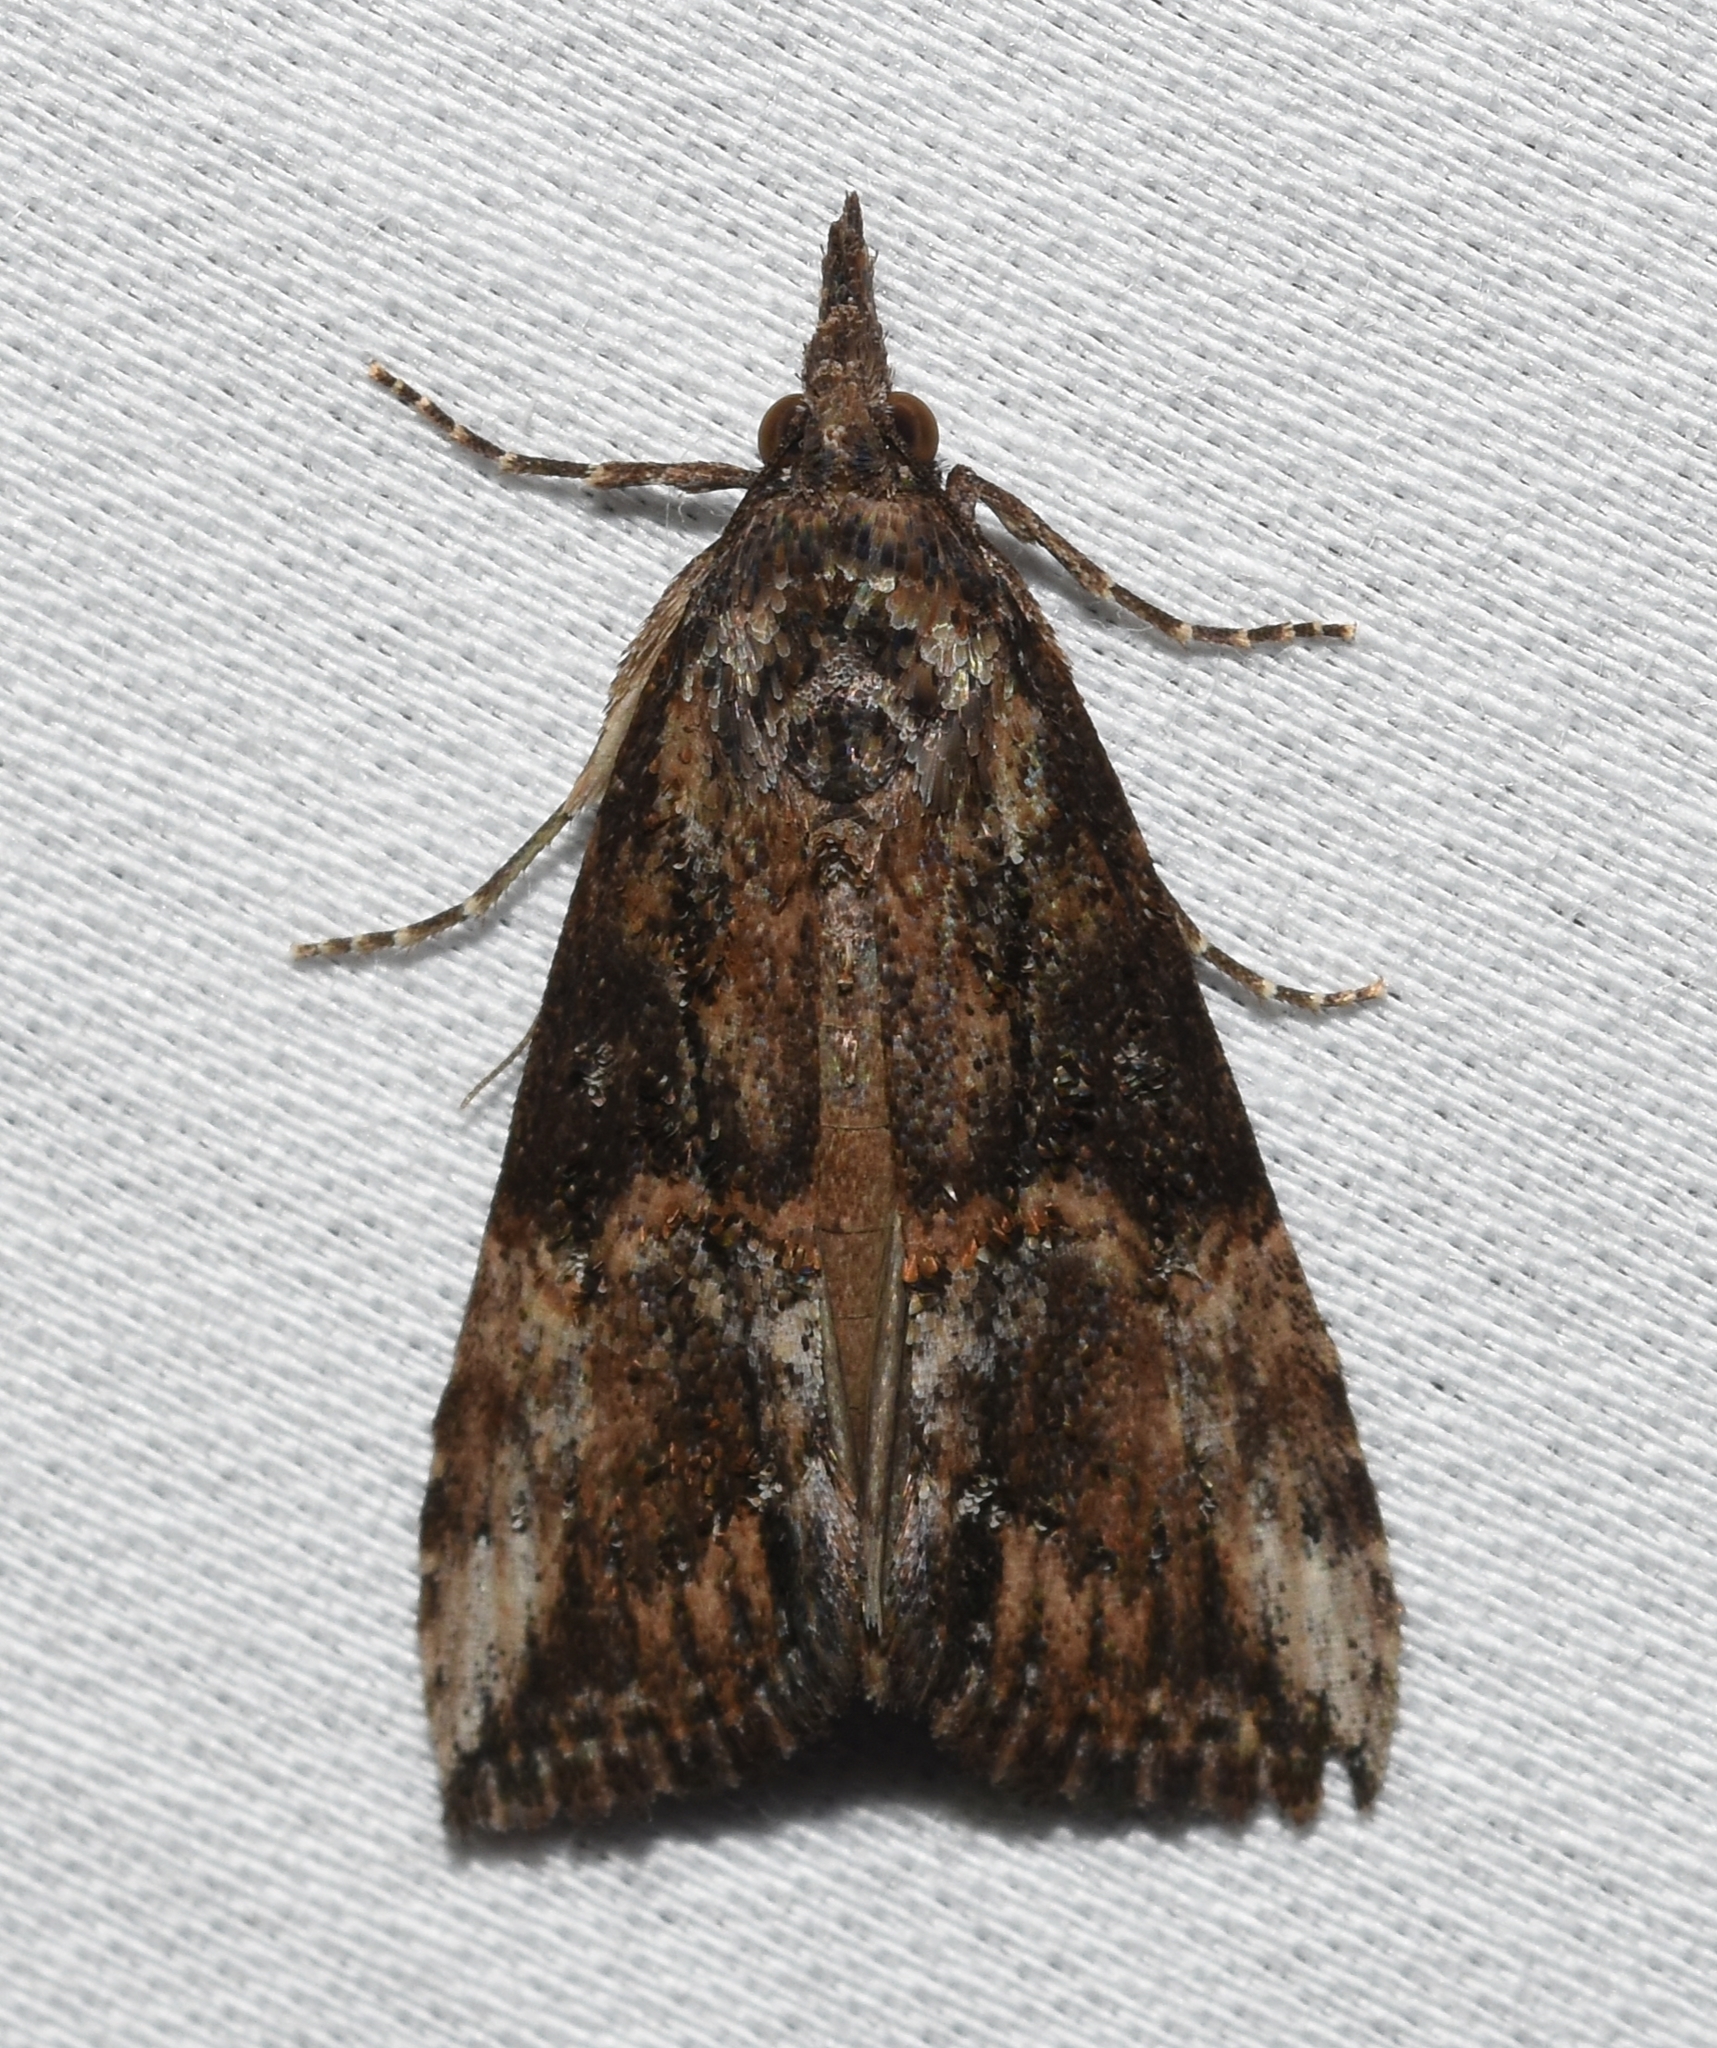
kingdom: Animalia
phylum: Arthropoda
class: Insecta
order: Lepidoptera
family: Erebidae
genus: Hypena
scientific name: Hypena scabra
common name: Green cloverworm
